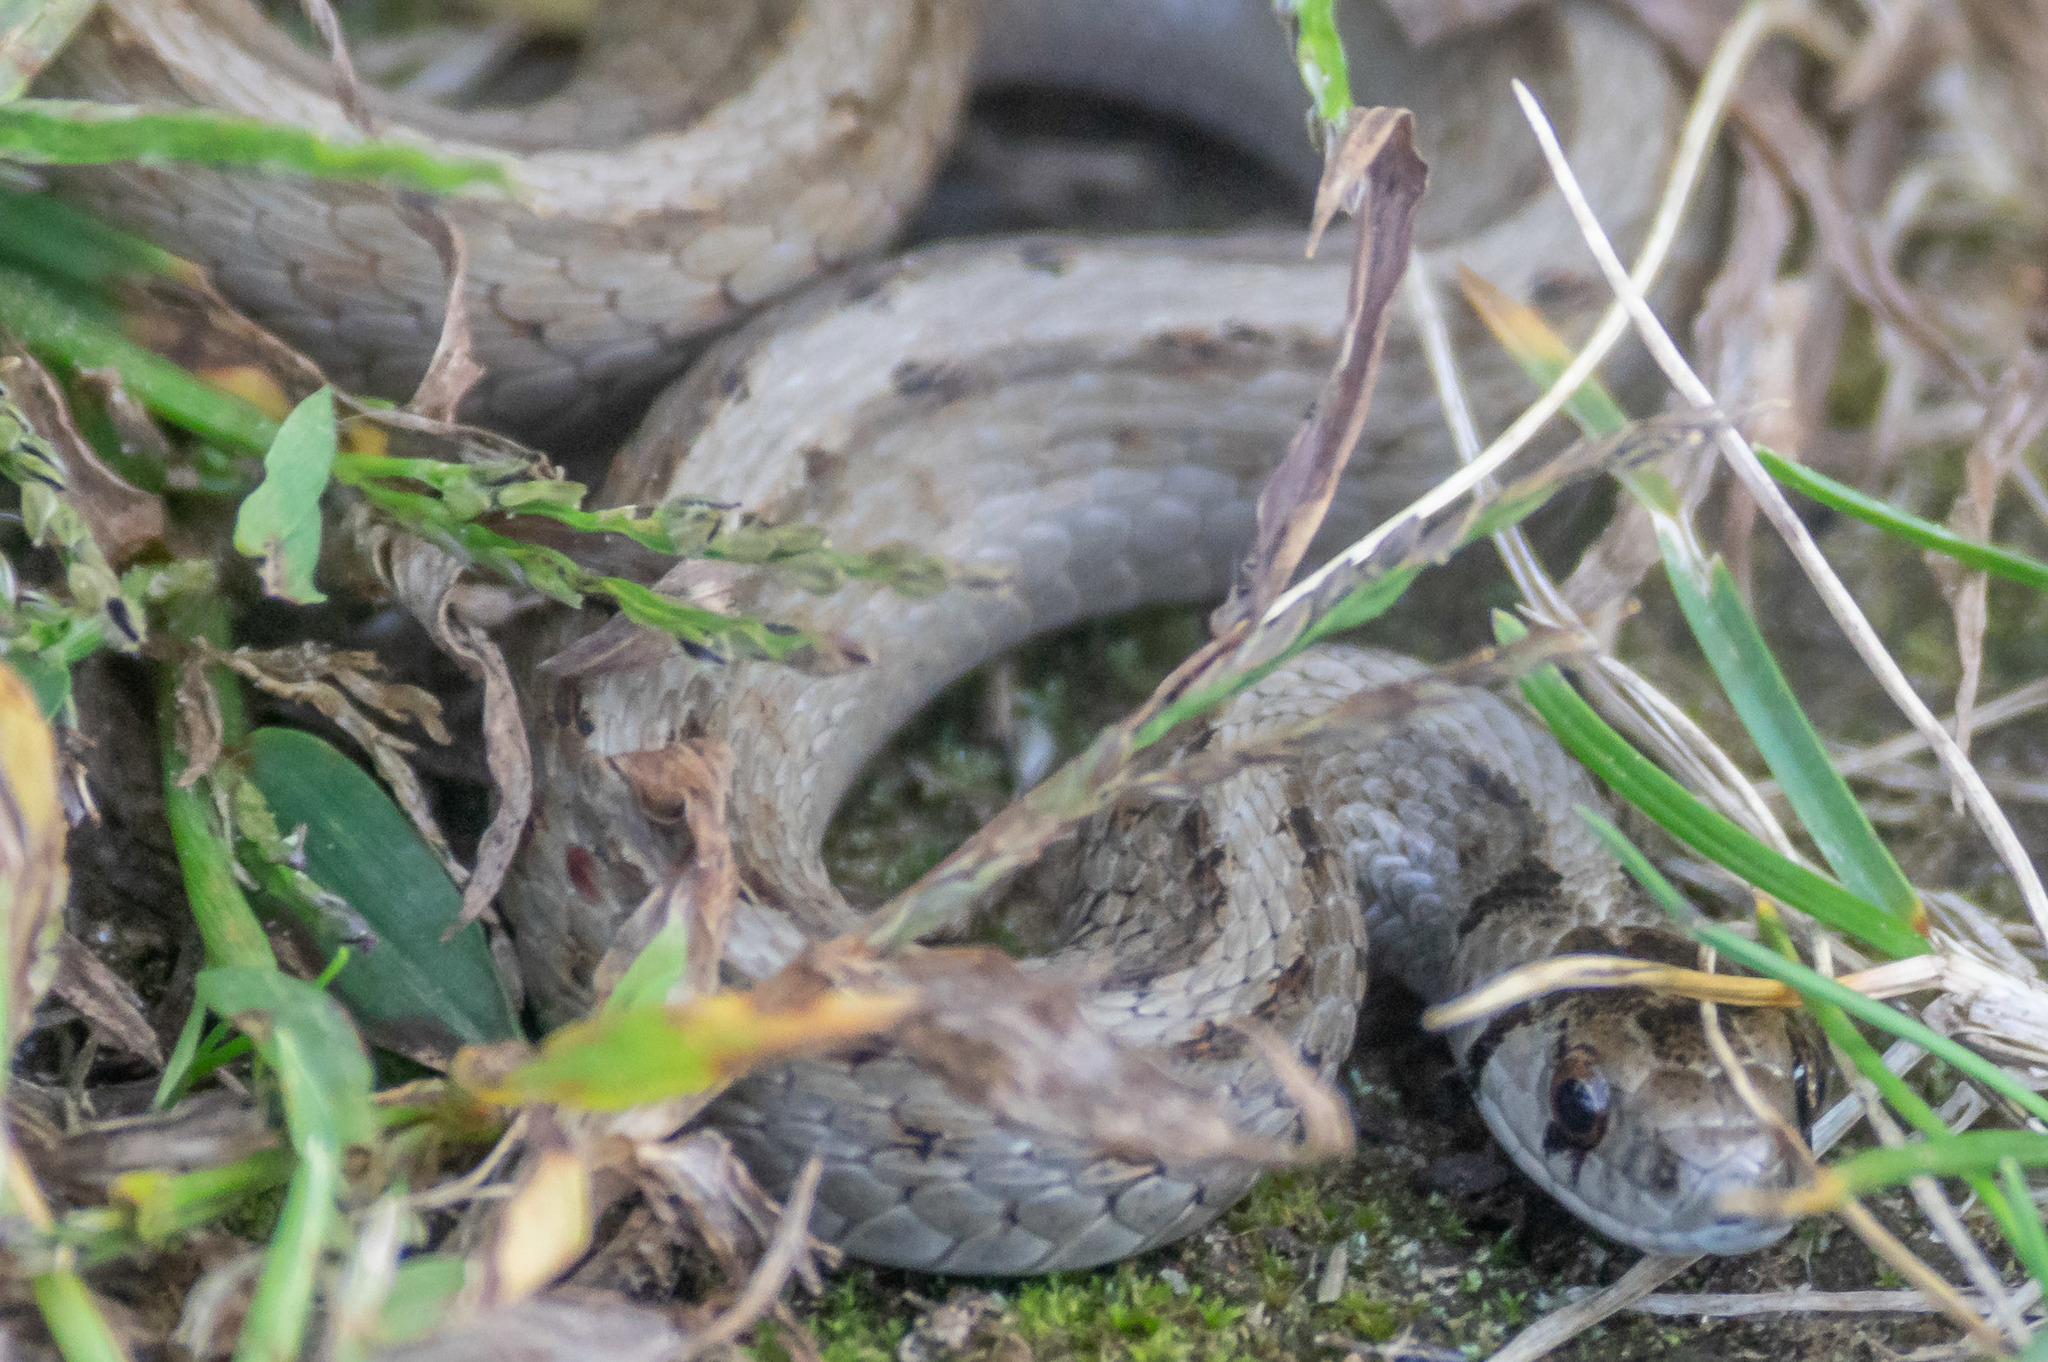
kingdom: Animalia
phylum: Chordata
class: Squamata
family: Colubridae
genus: Storeria
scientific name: Storeria dekayi
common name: (dekay’s) brown snake
